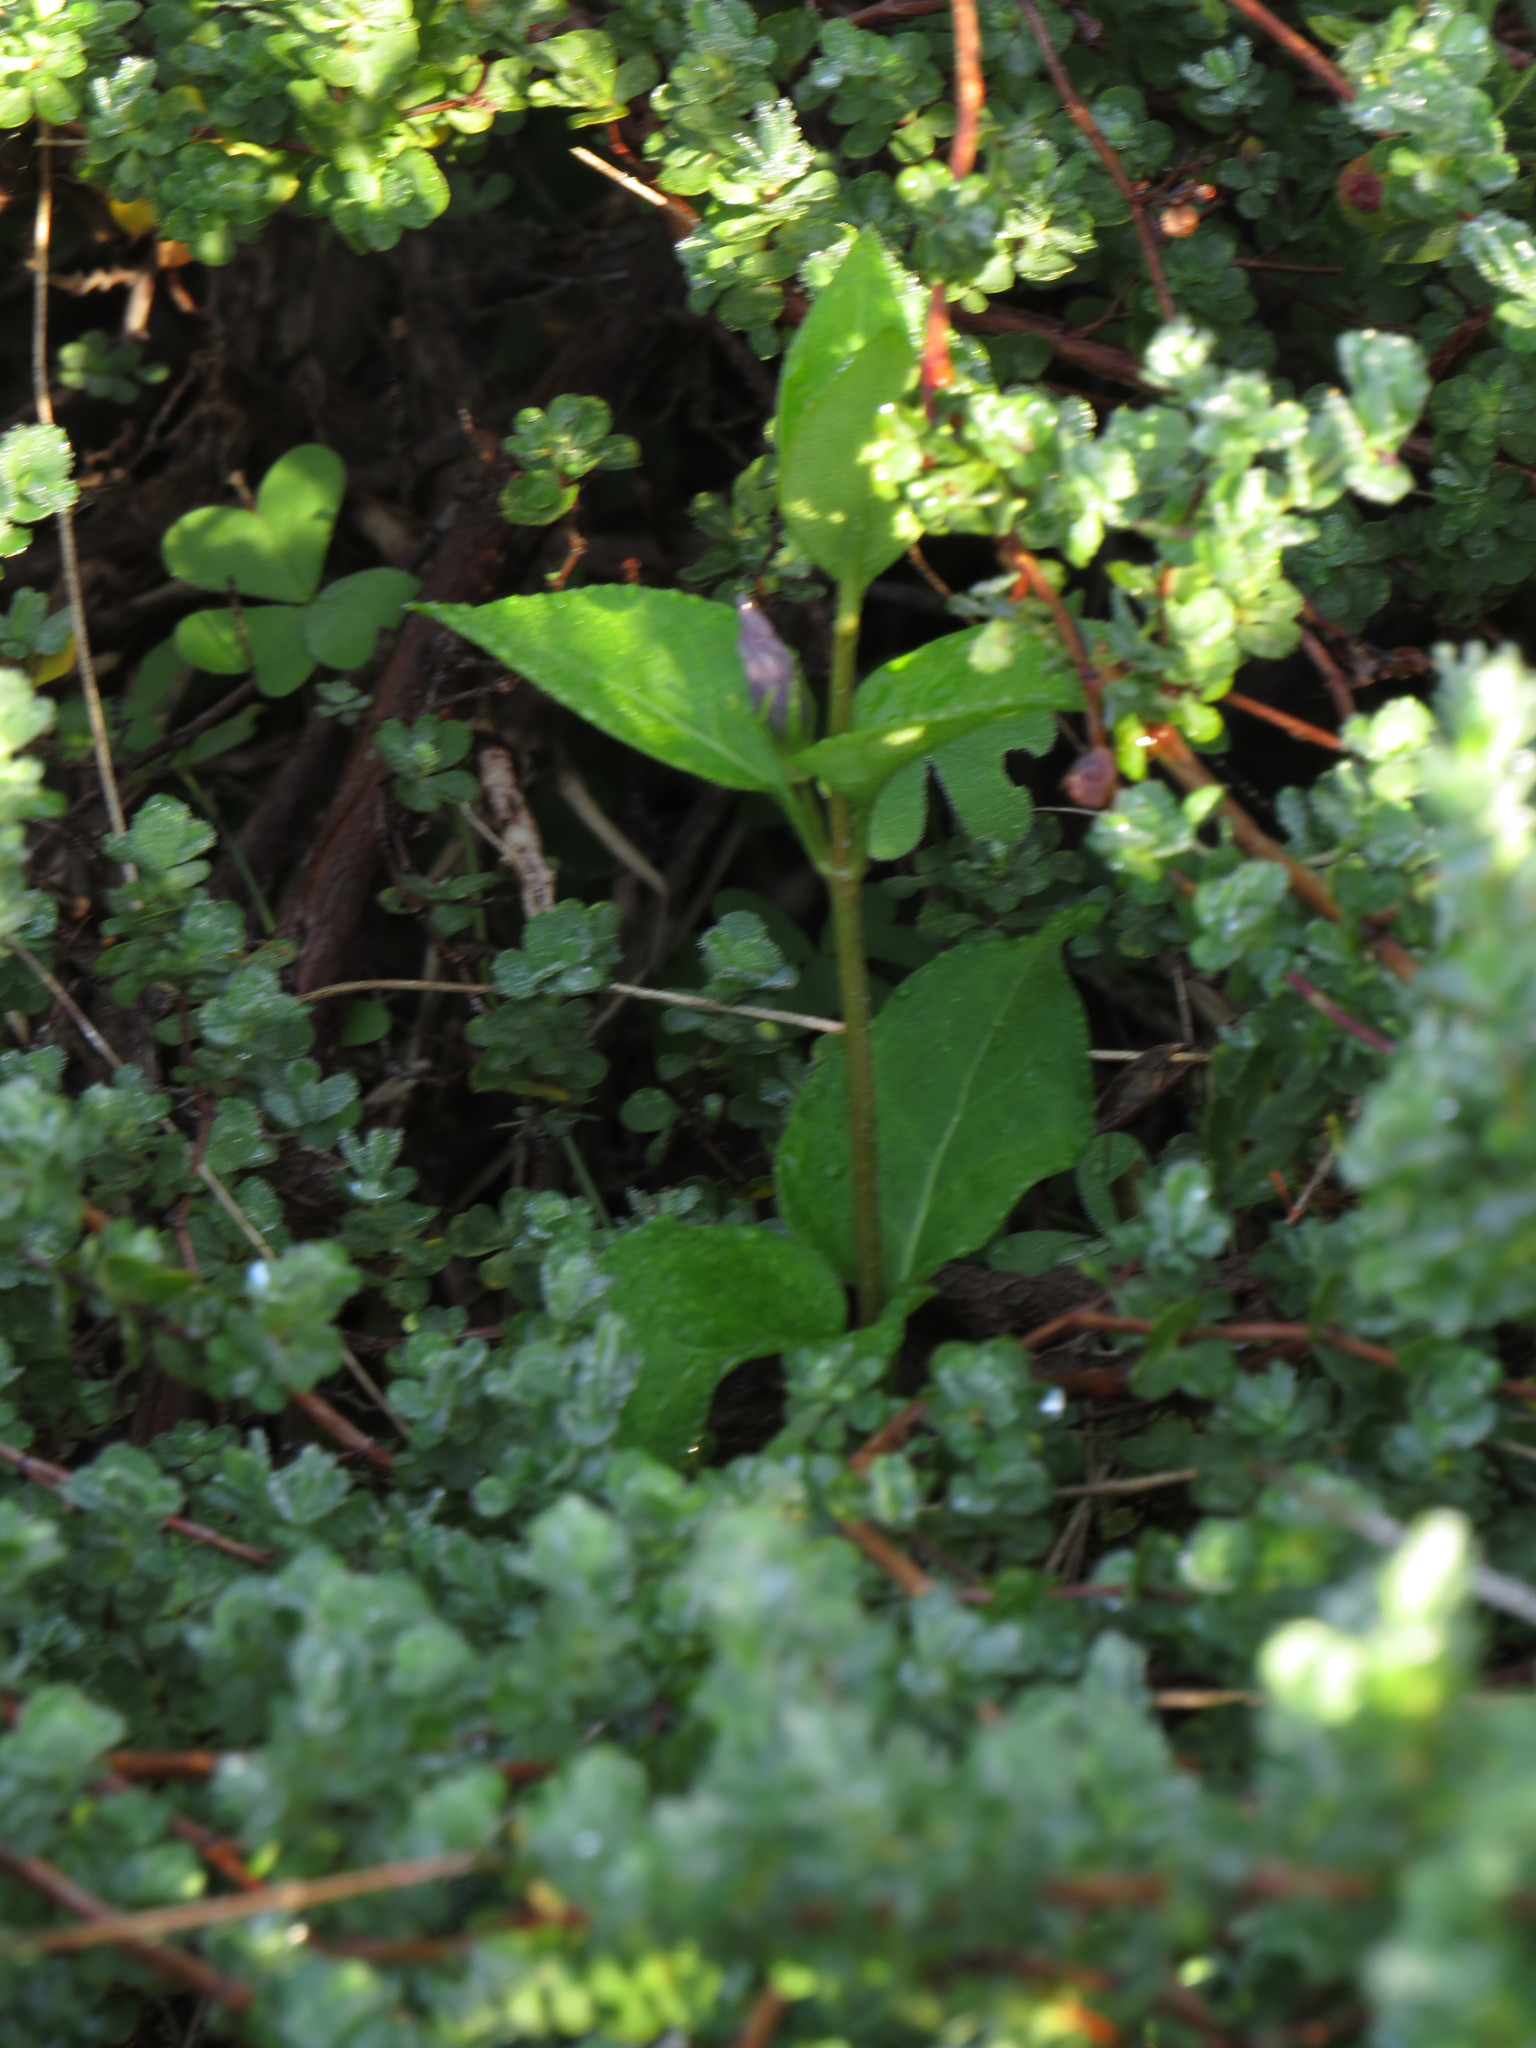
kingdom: Plantae
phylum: Tracheophyta
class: Magnoliopsida
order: Gentianales
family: Apocynaceae
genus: Vinca
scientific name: Vinca major
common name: Greater periwinkle
